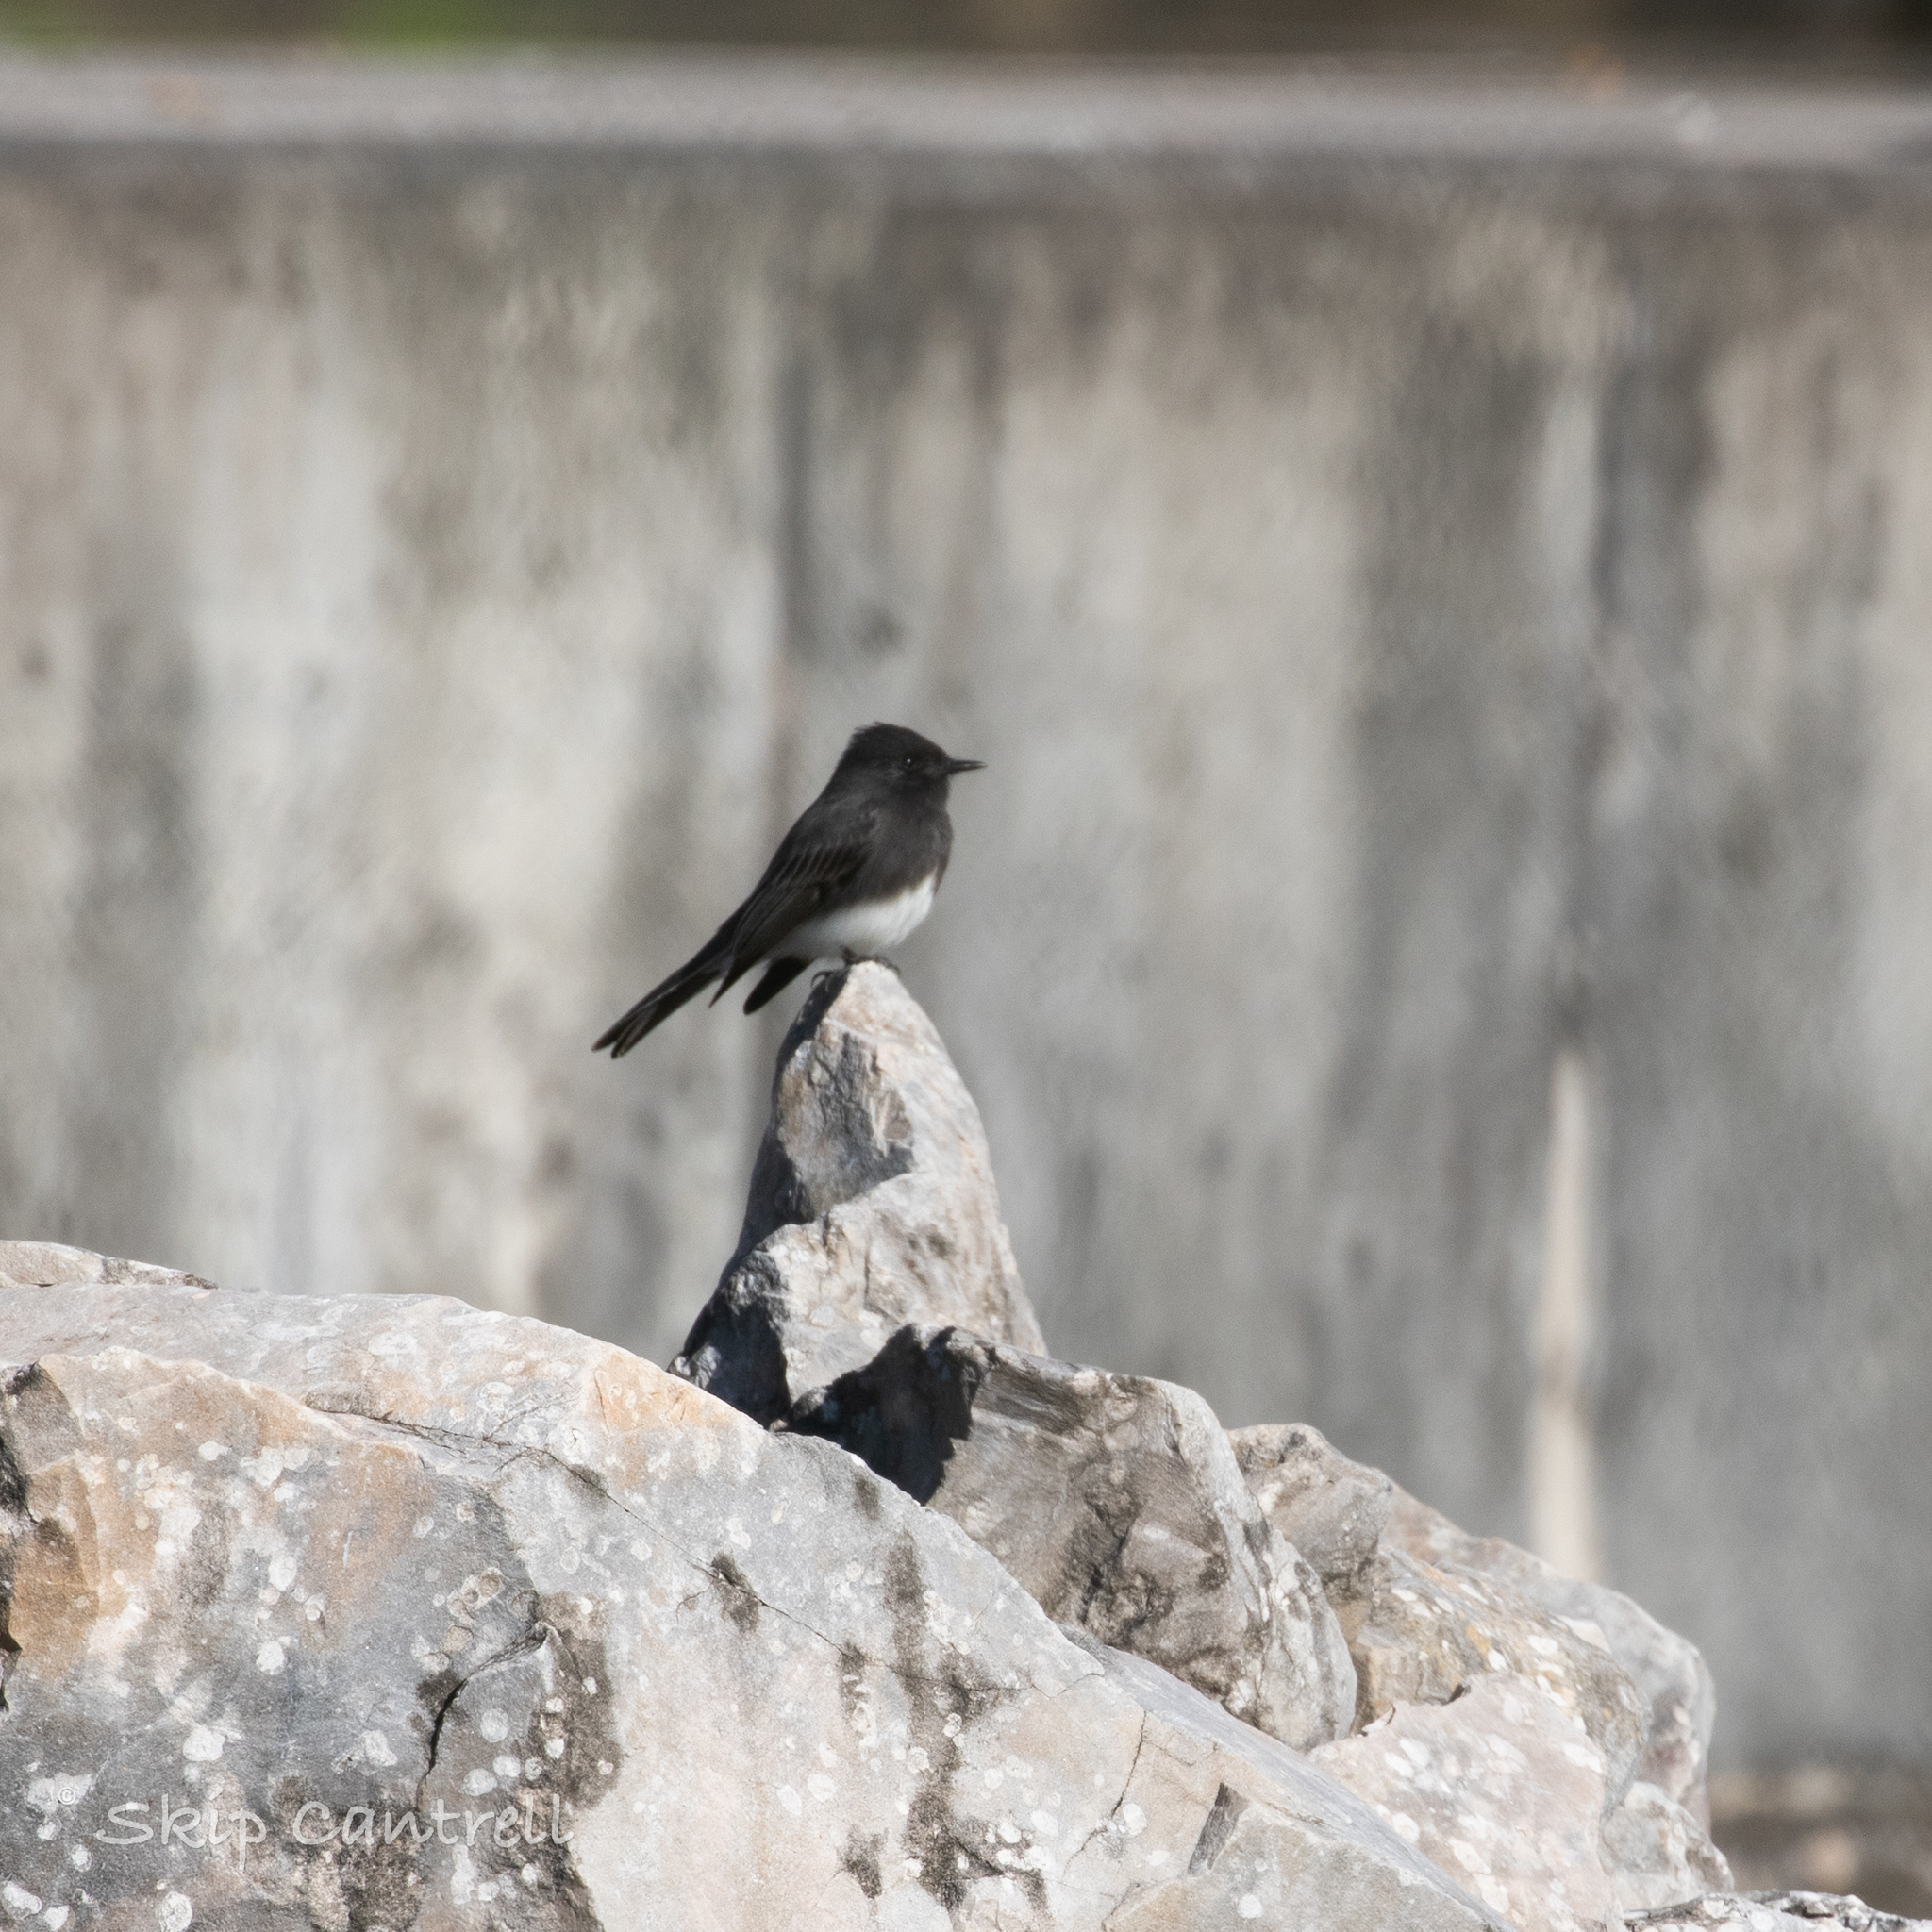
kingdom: Animalia
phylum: Chordata
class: Aves
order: Passeriformes
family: Tyrannidae
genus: Sayornis
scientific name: Sayornis nigricans
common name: Black phoebe
